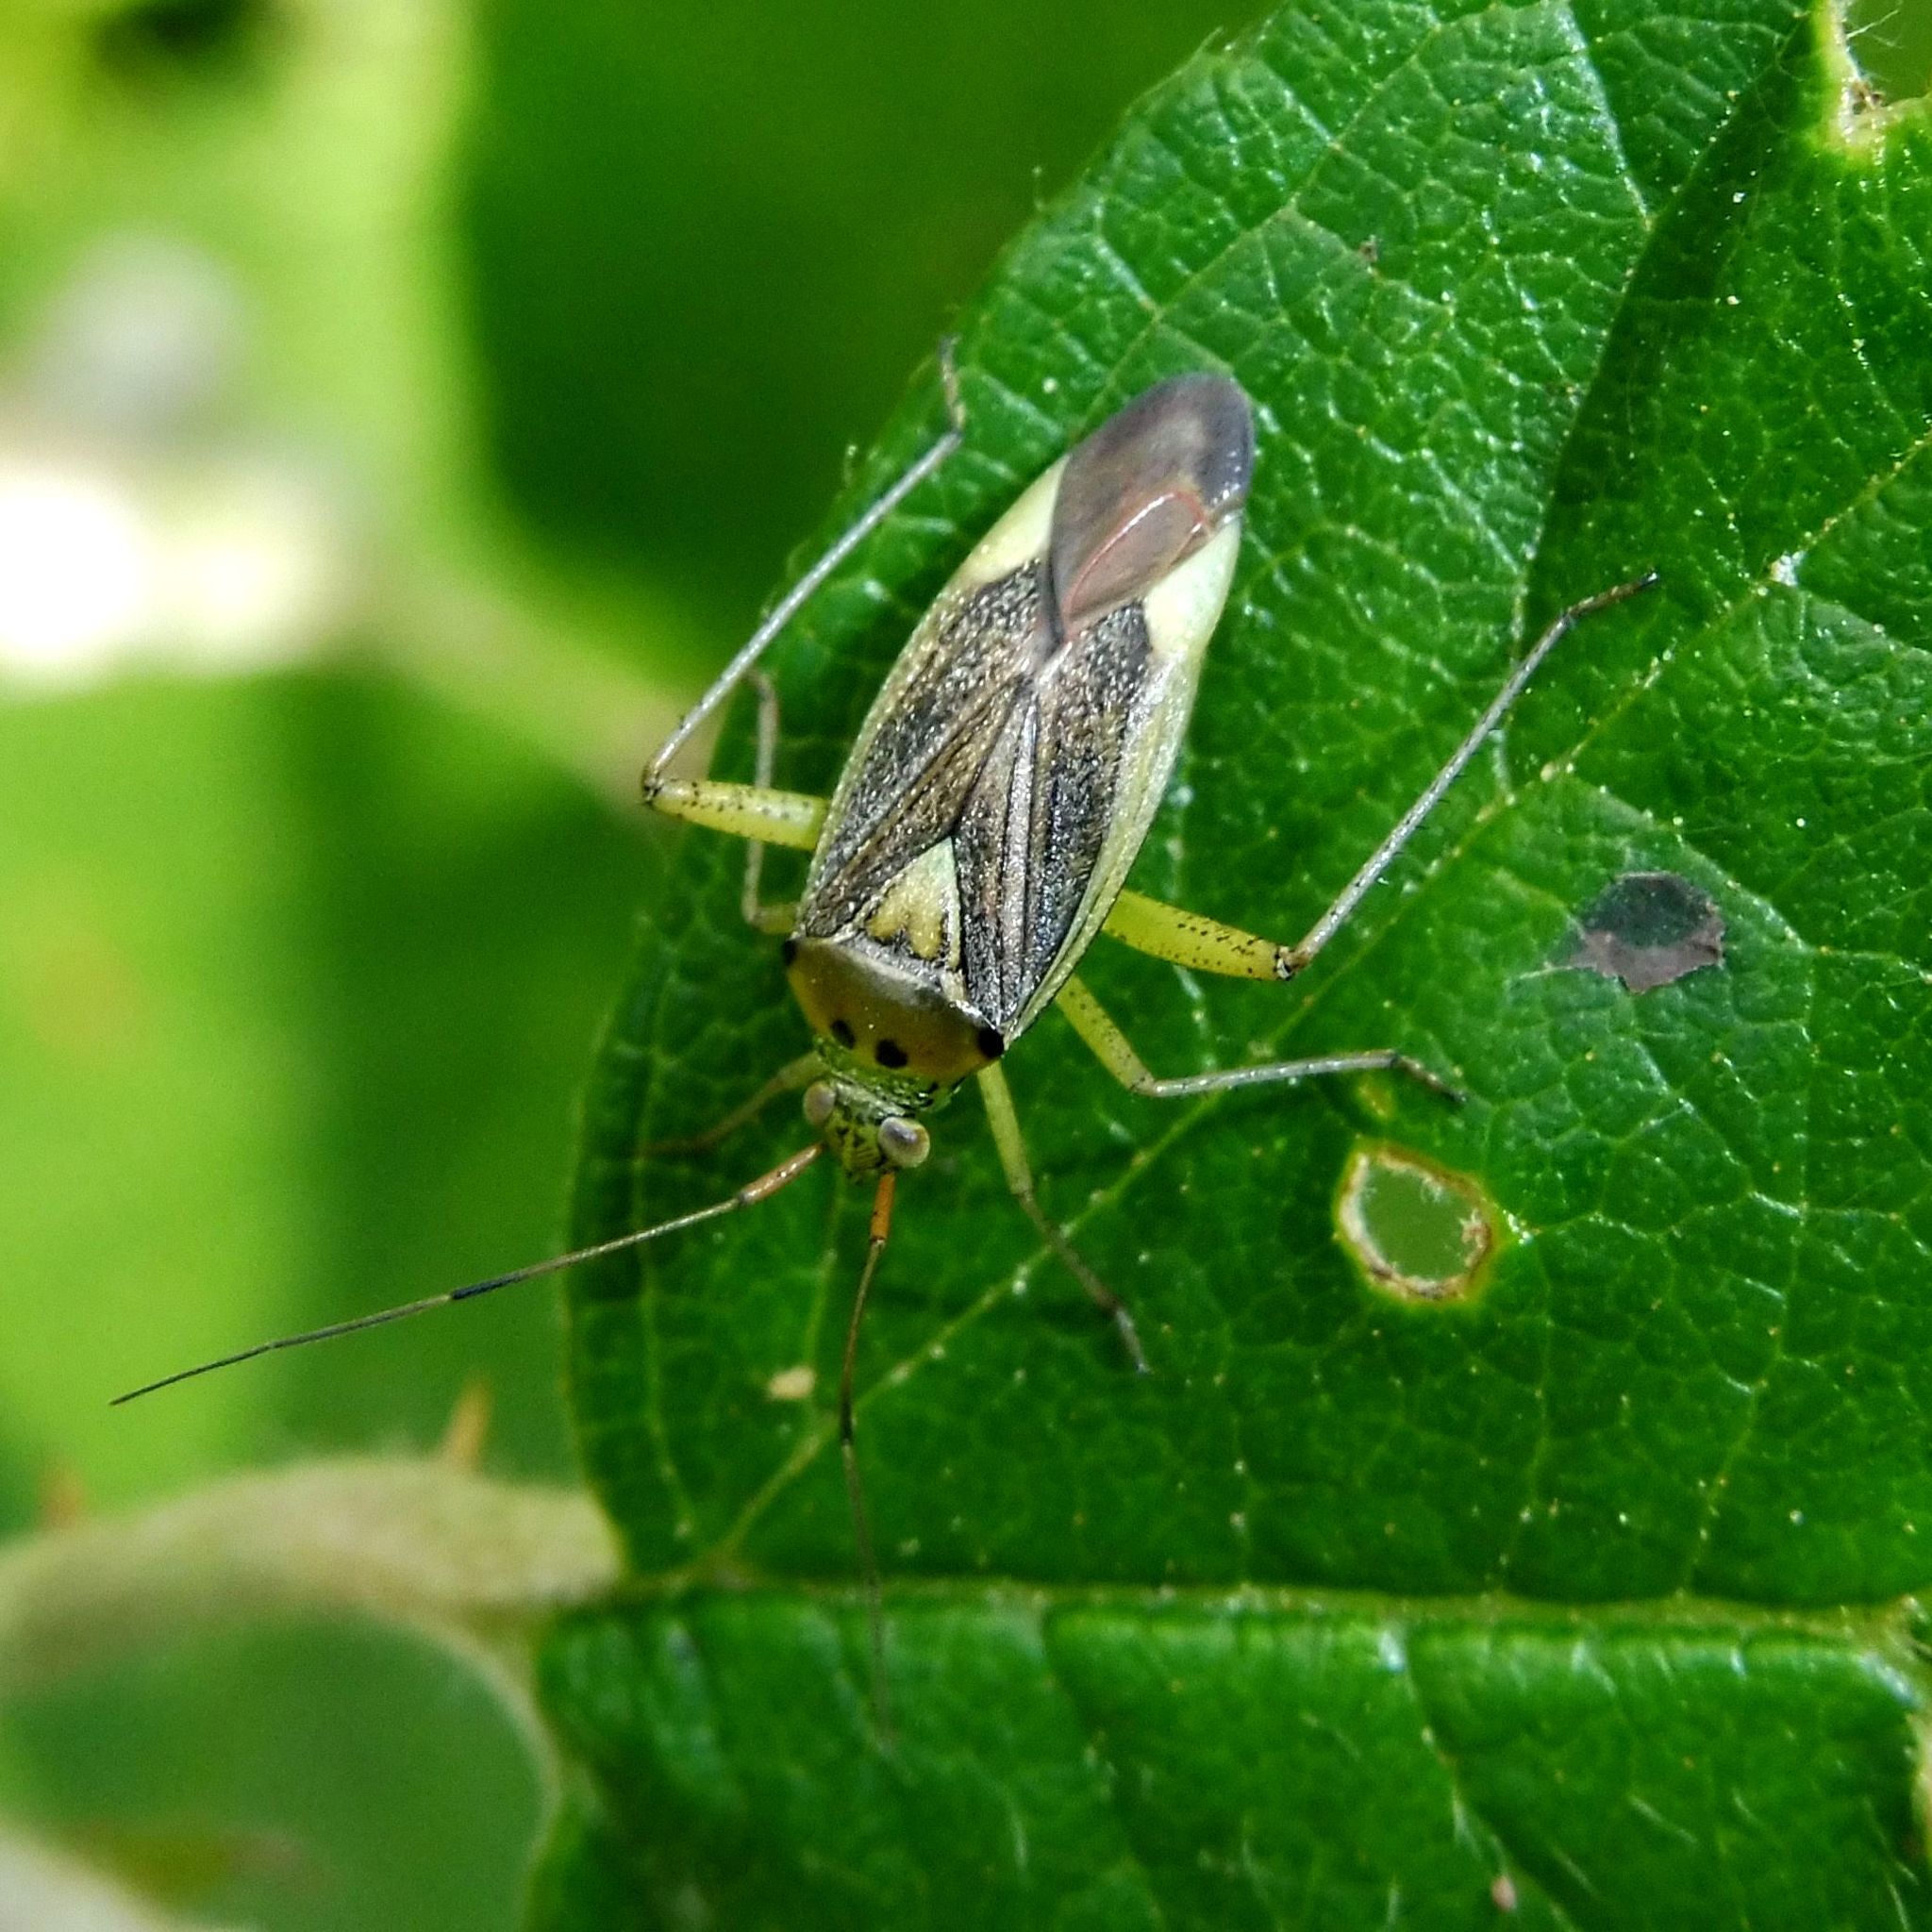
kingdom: Animalia
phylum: Arthropoda
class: Insecta
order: Hemiptera
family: Miridae
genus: Closterotomus
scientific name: Closterotomus trivialis
